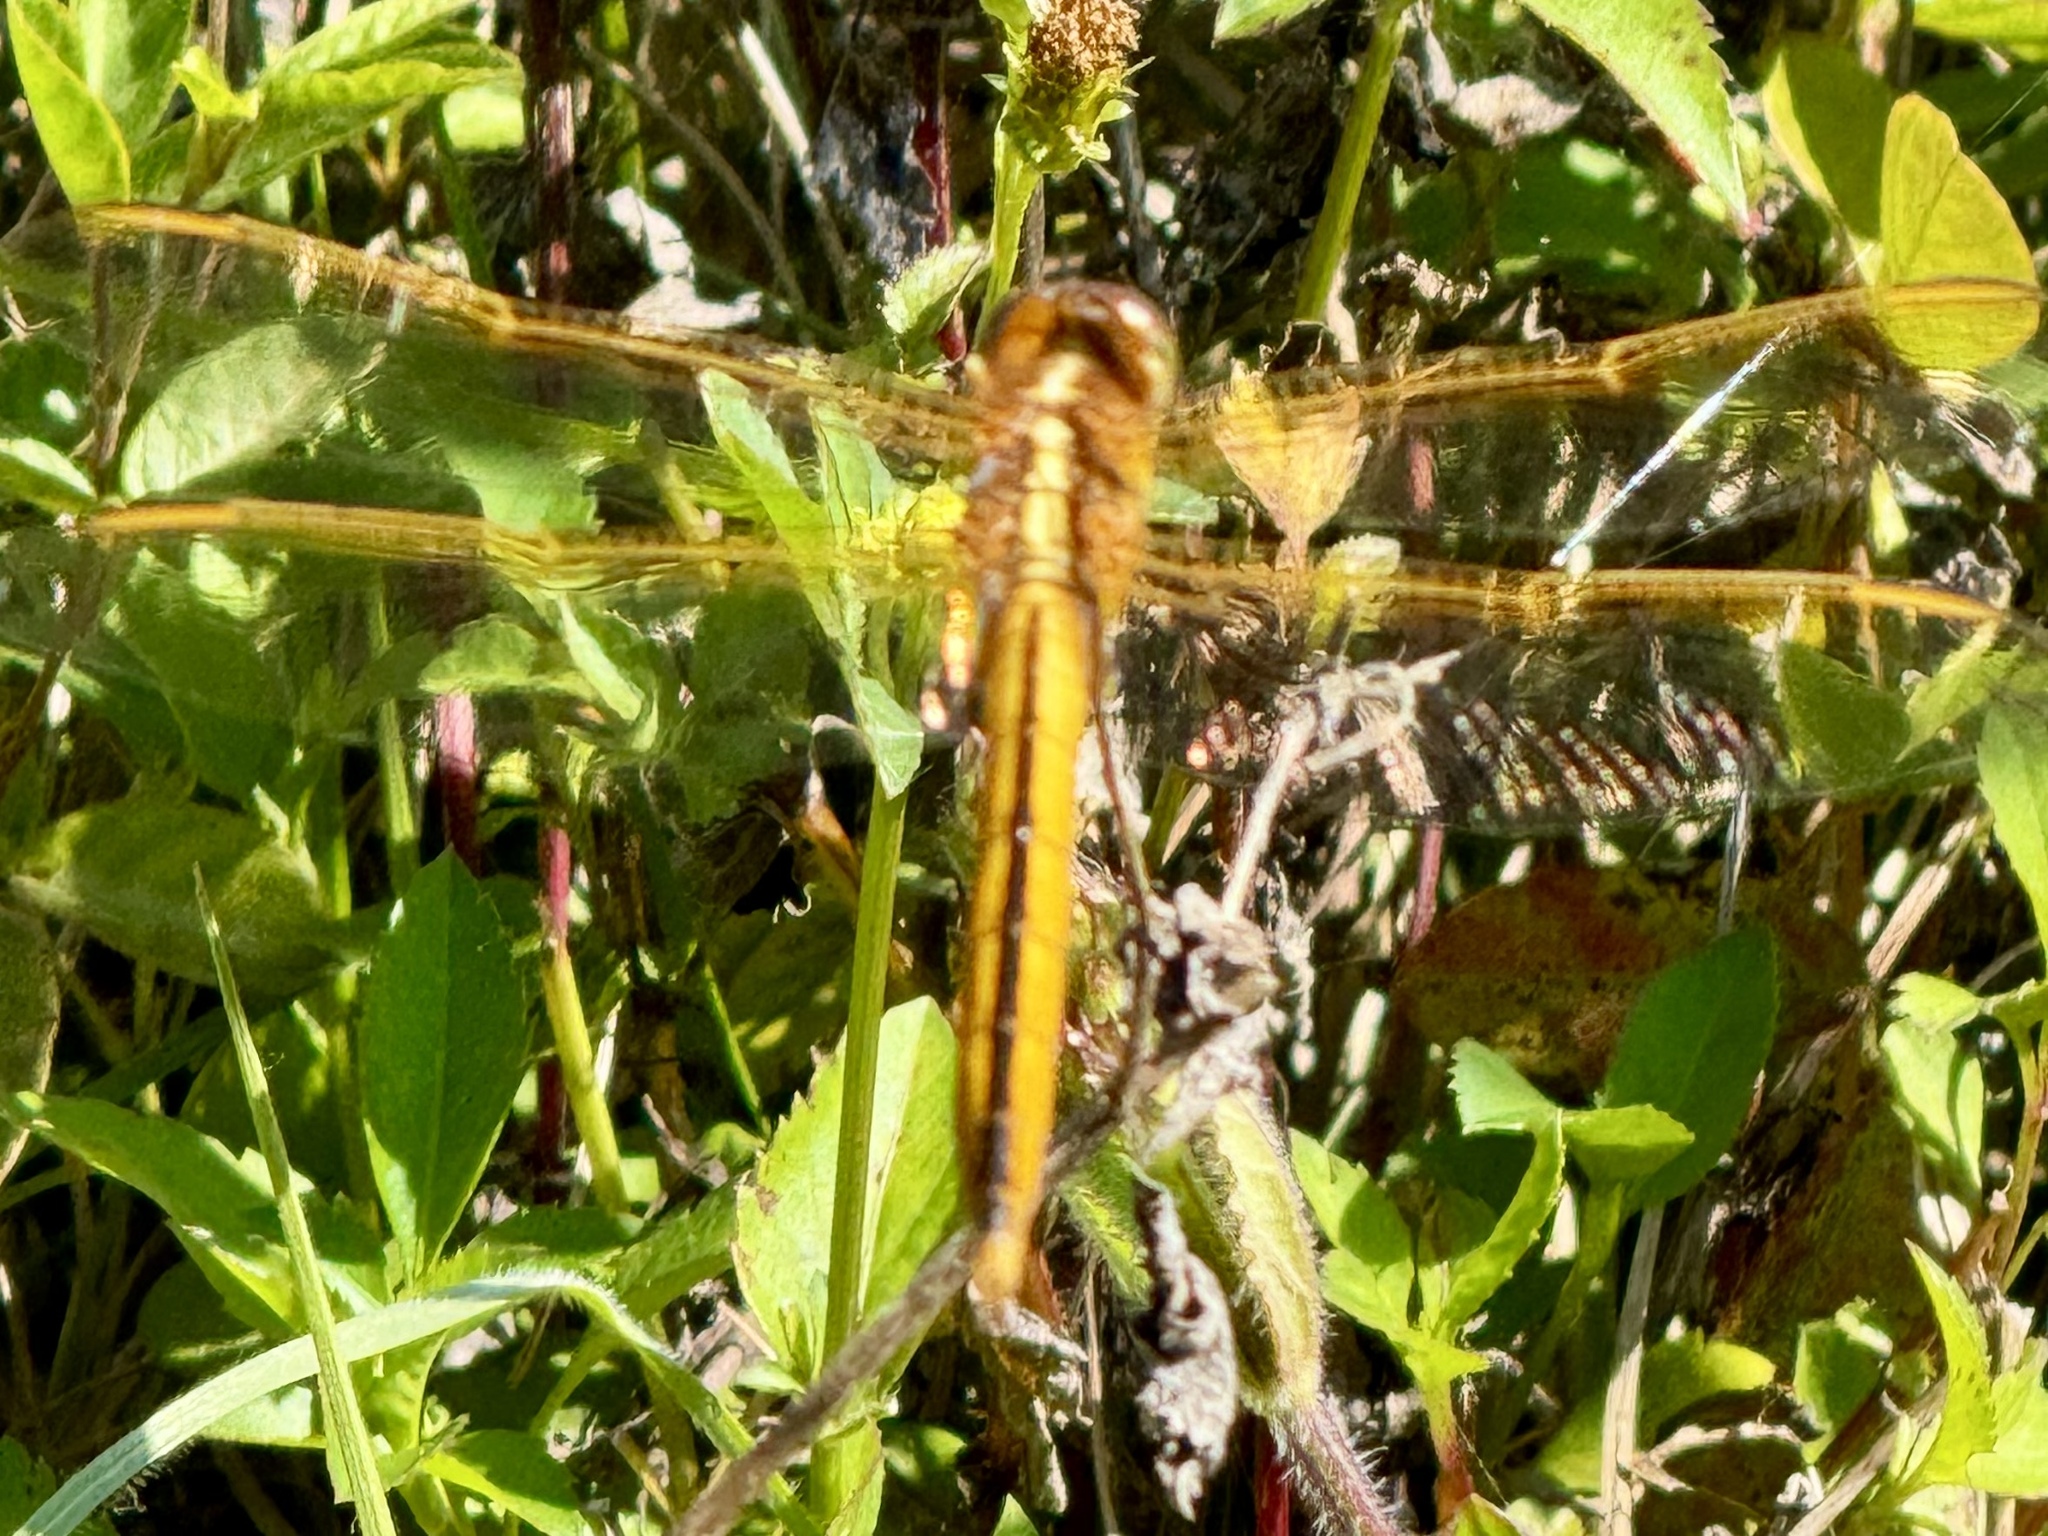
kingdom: Animalia
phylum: Arthropoda
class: Insecta
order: Odonata
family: Libellulidae
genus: Libellula
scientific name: Libellula needhami
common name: Needham's skimmer
